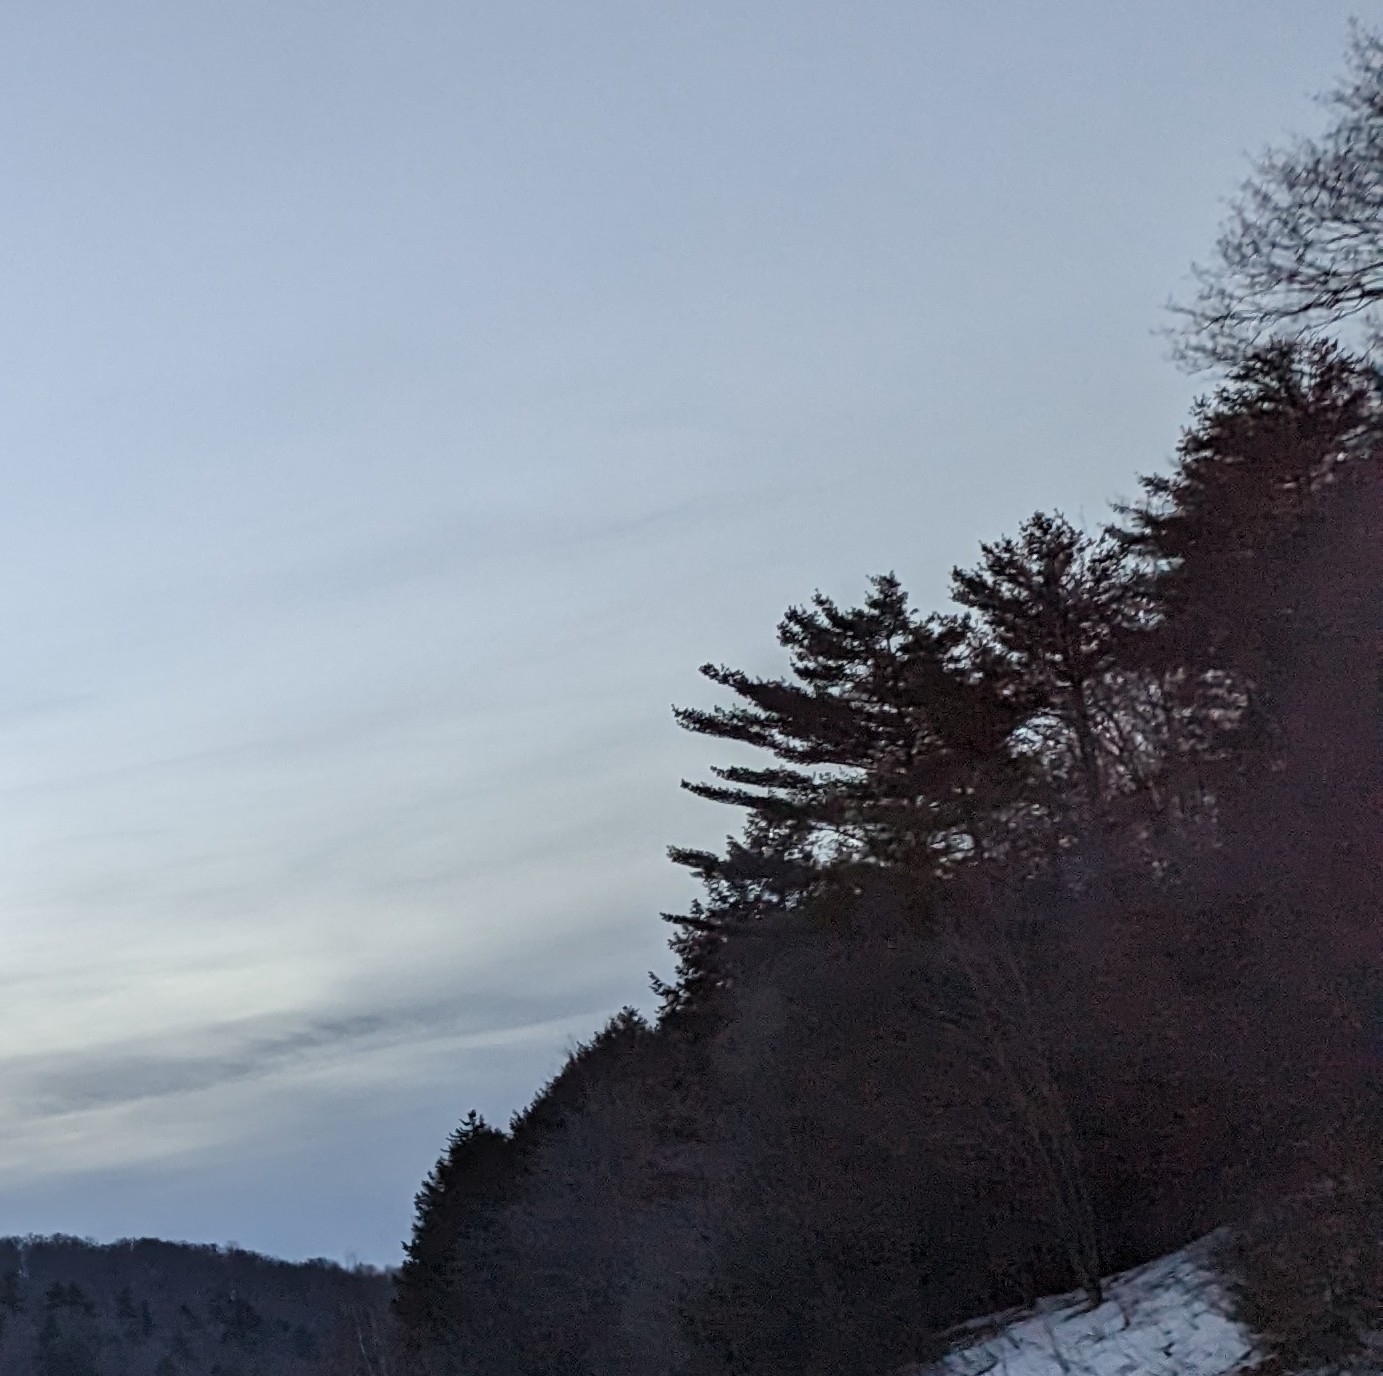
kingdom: Plantae
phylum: Tracheophyta
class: Pinopsida
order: Pinales
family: Pinaceae
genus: Pinus
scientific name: Pinus strobus
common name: Weymouth pine
